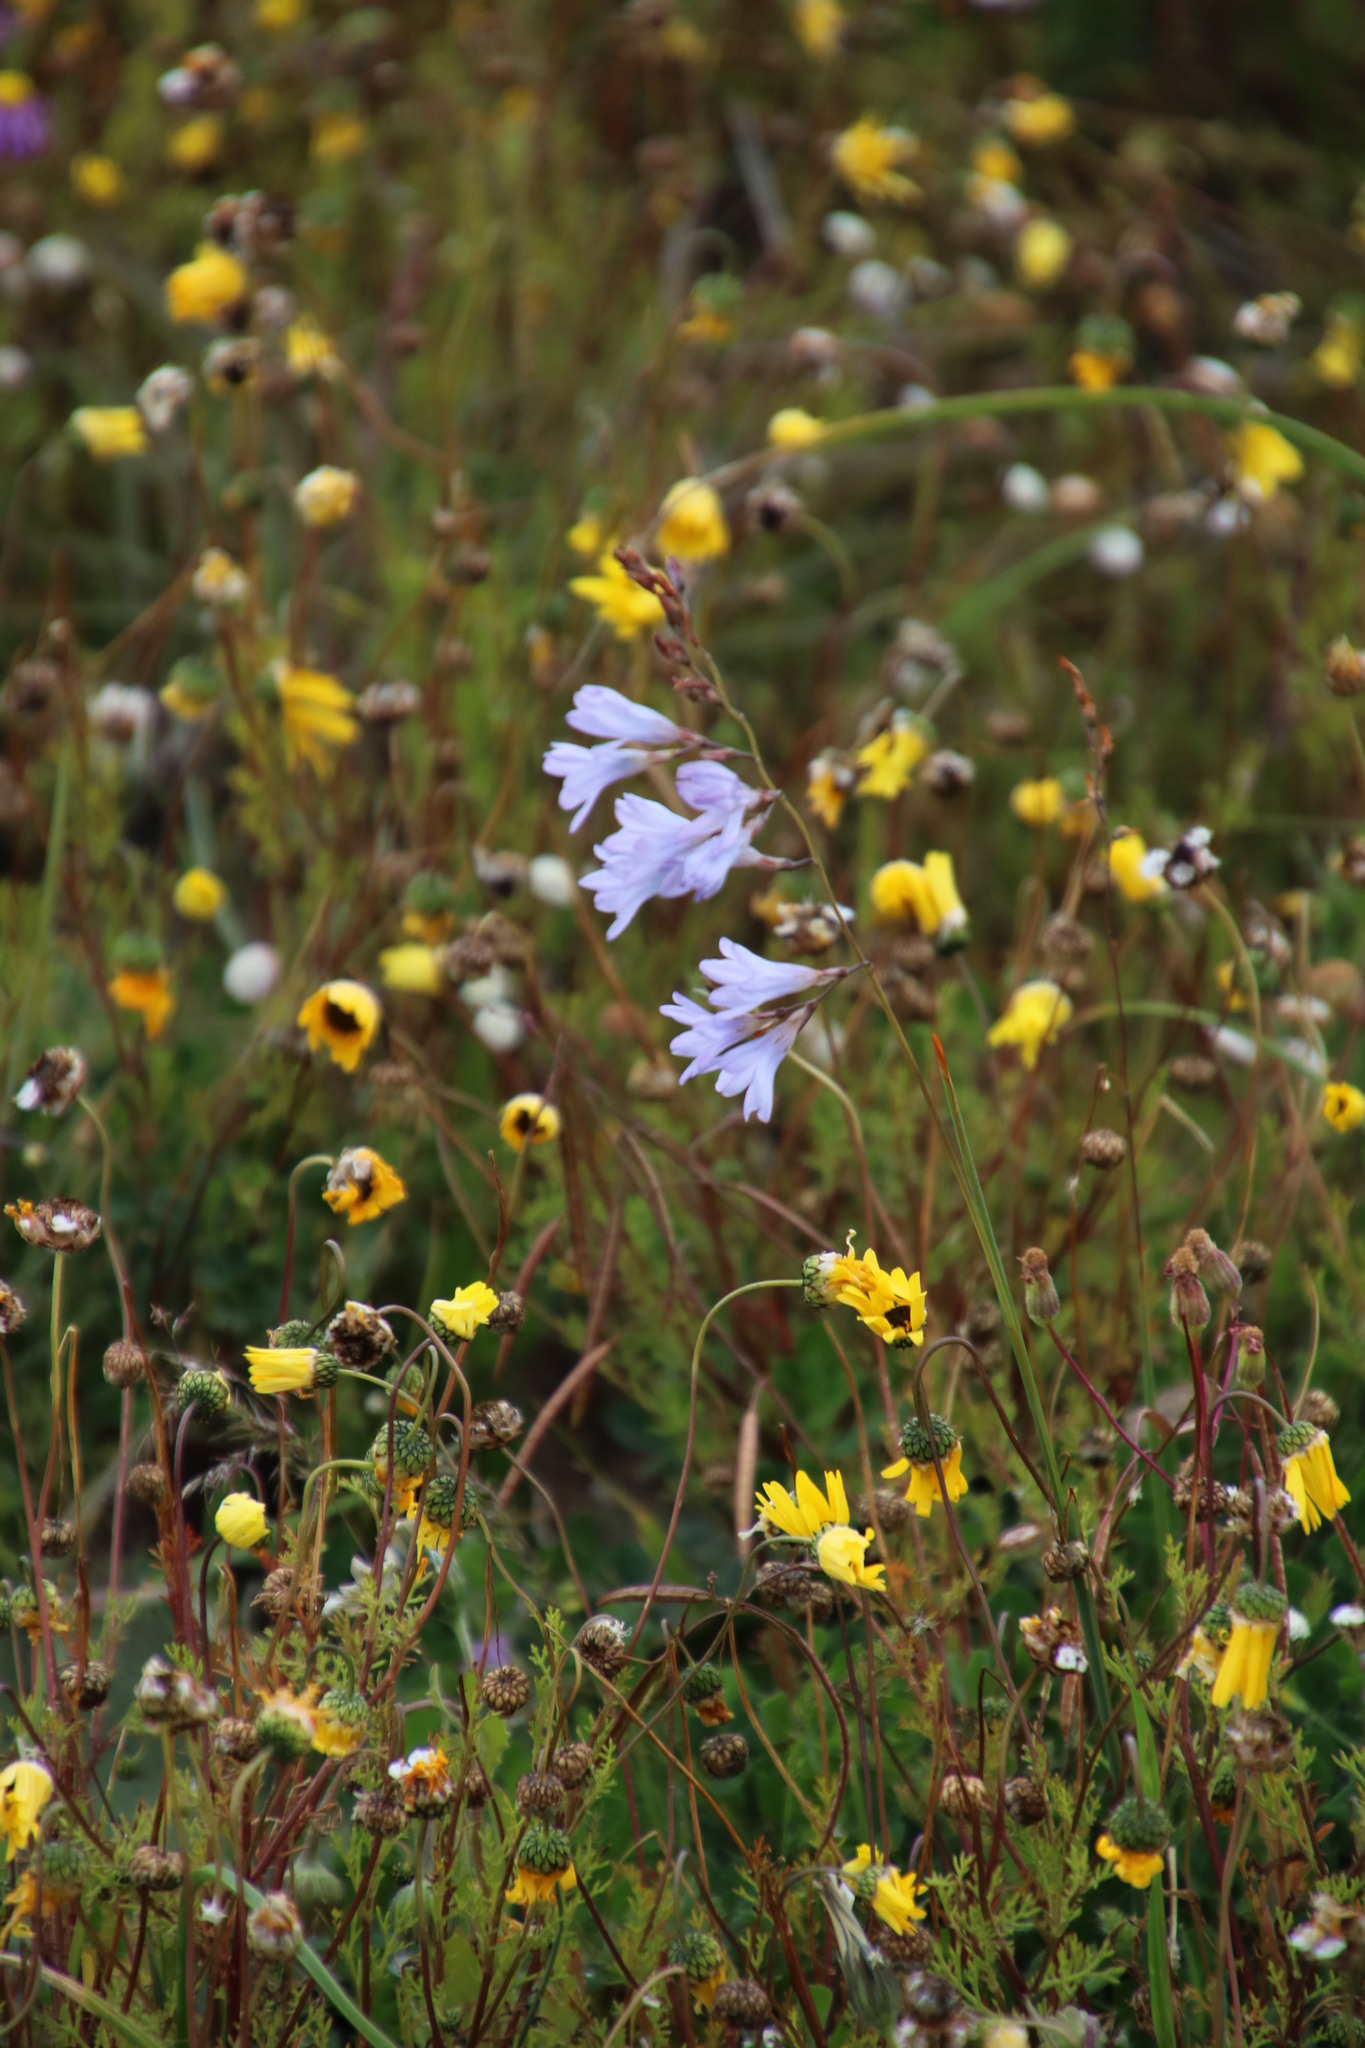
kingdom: Plantae
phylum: Tracheophyta
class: Liliopsida
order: Asparagales
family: Iridaceae
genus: Ixia
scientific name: Ixia rapunculoides
